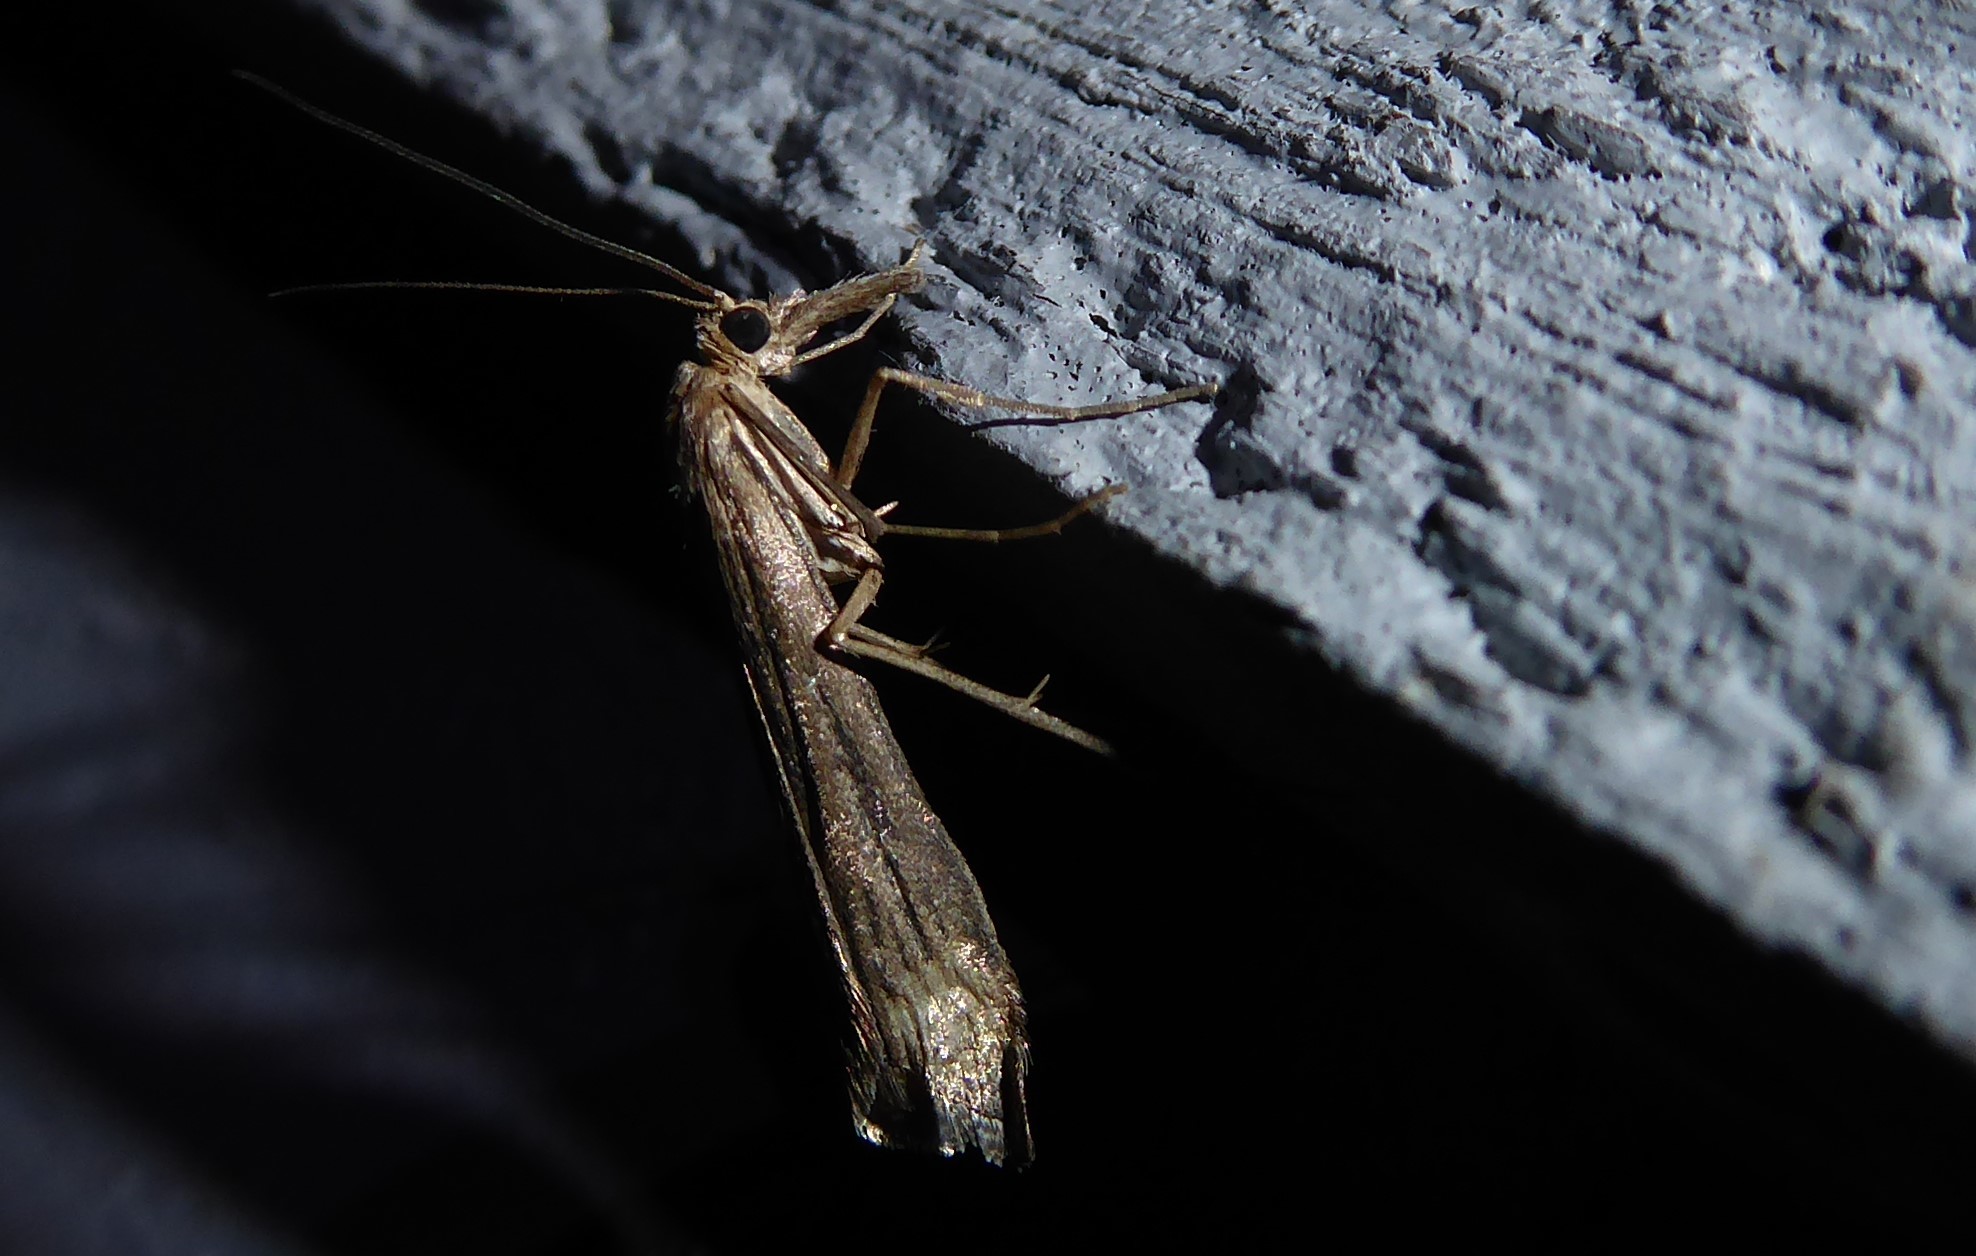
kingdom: Animalia
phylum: Arthropoda
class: Insecta
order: Lepidoptera
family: Crambidae
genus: Orocrambus
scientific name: Orocrambus cyclopicus
